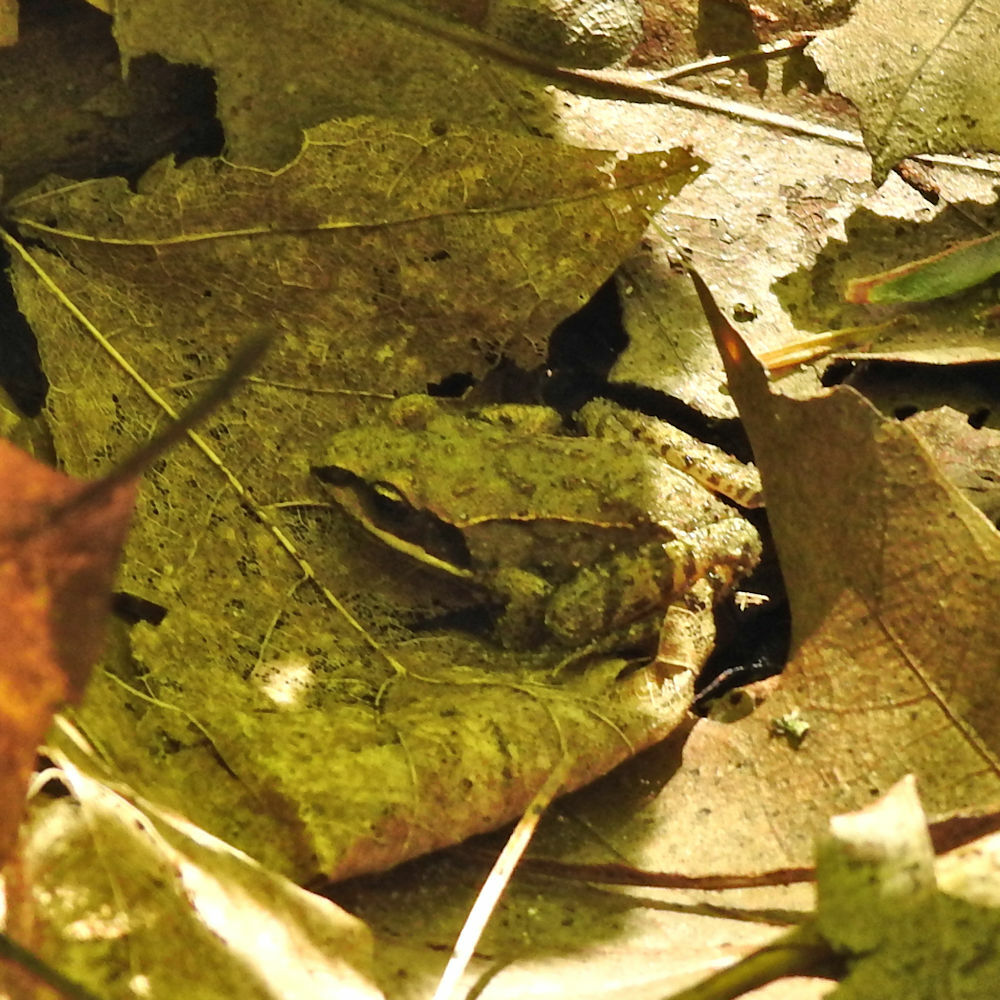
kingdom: Animalia
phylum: Chordata
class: Amphibia
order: Anura
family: Ranidae
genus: Lithobates
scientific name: Lithobates sylvaticus
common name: Wood frog
